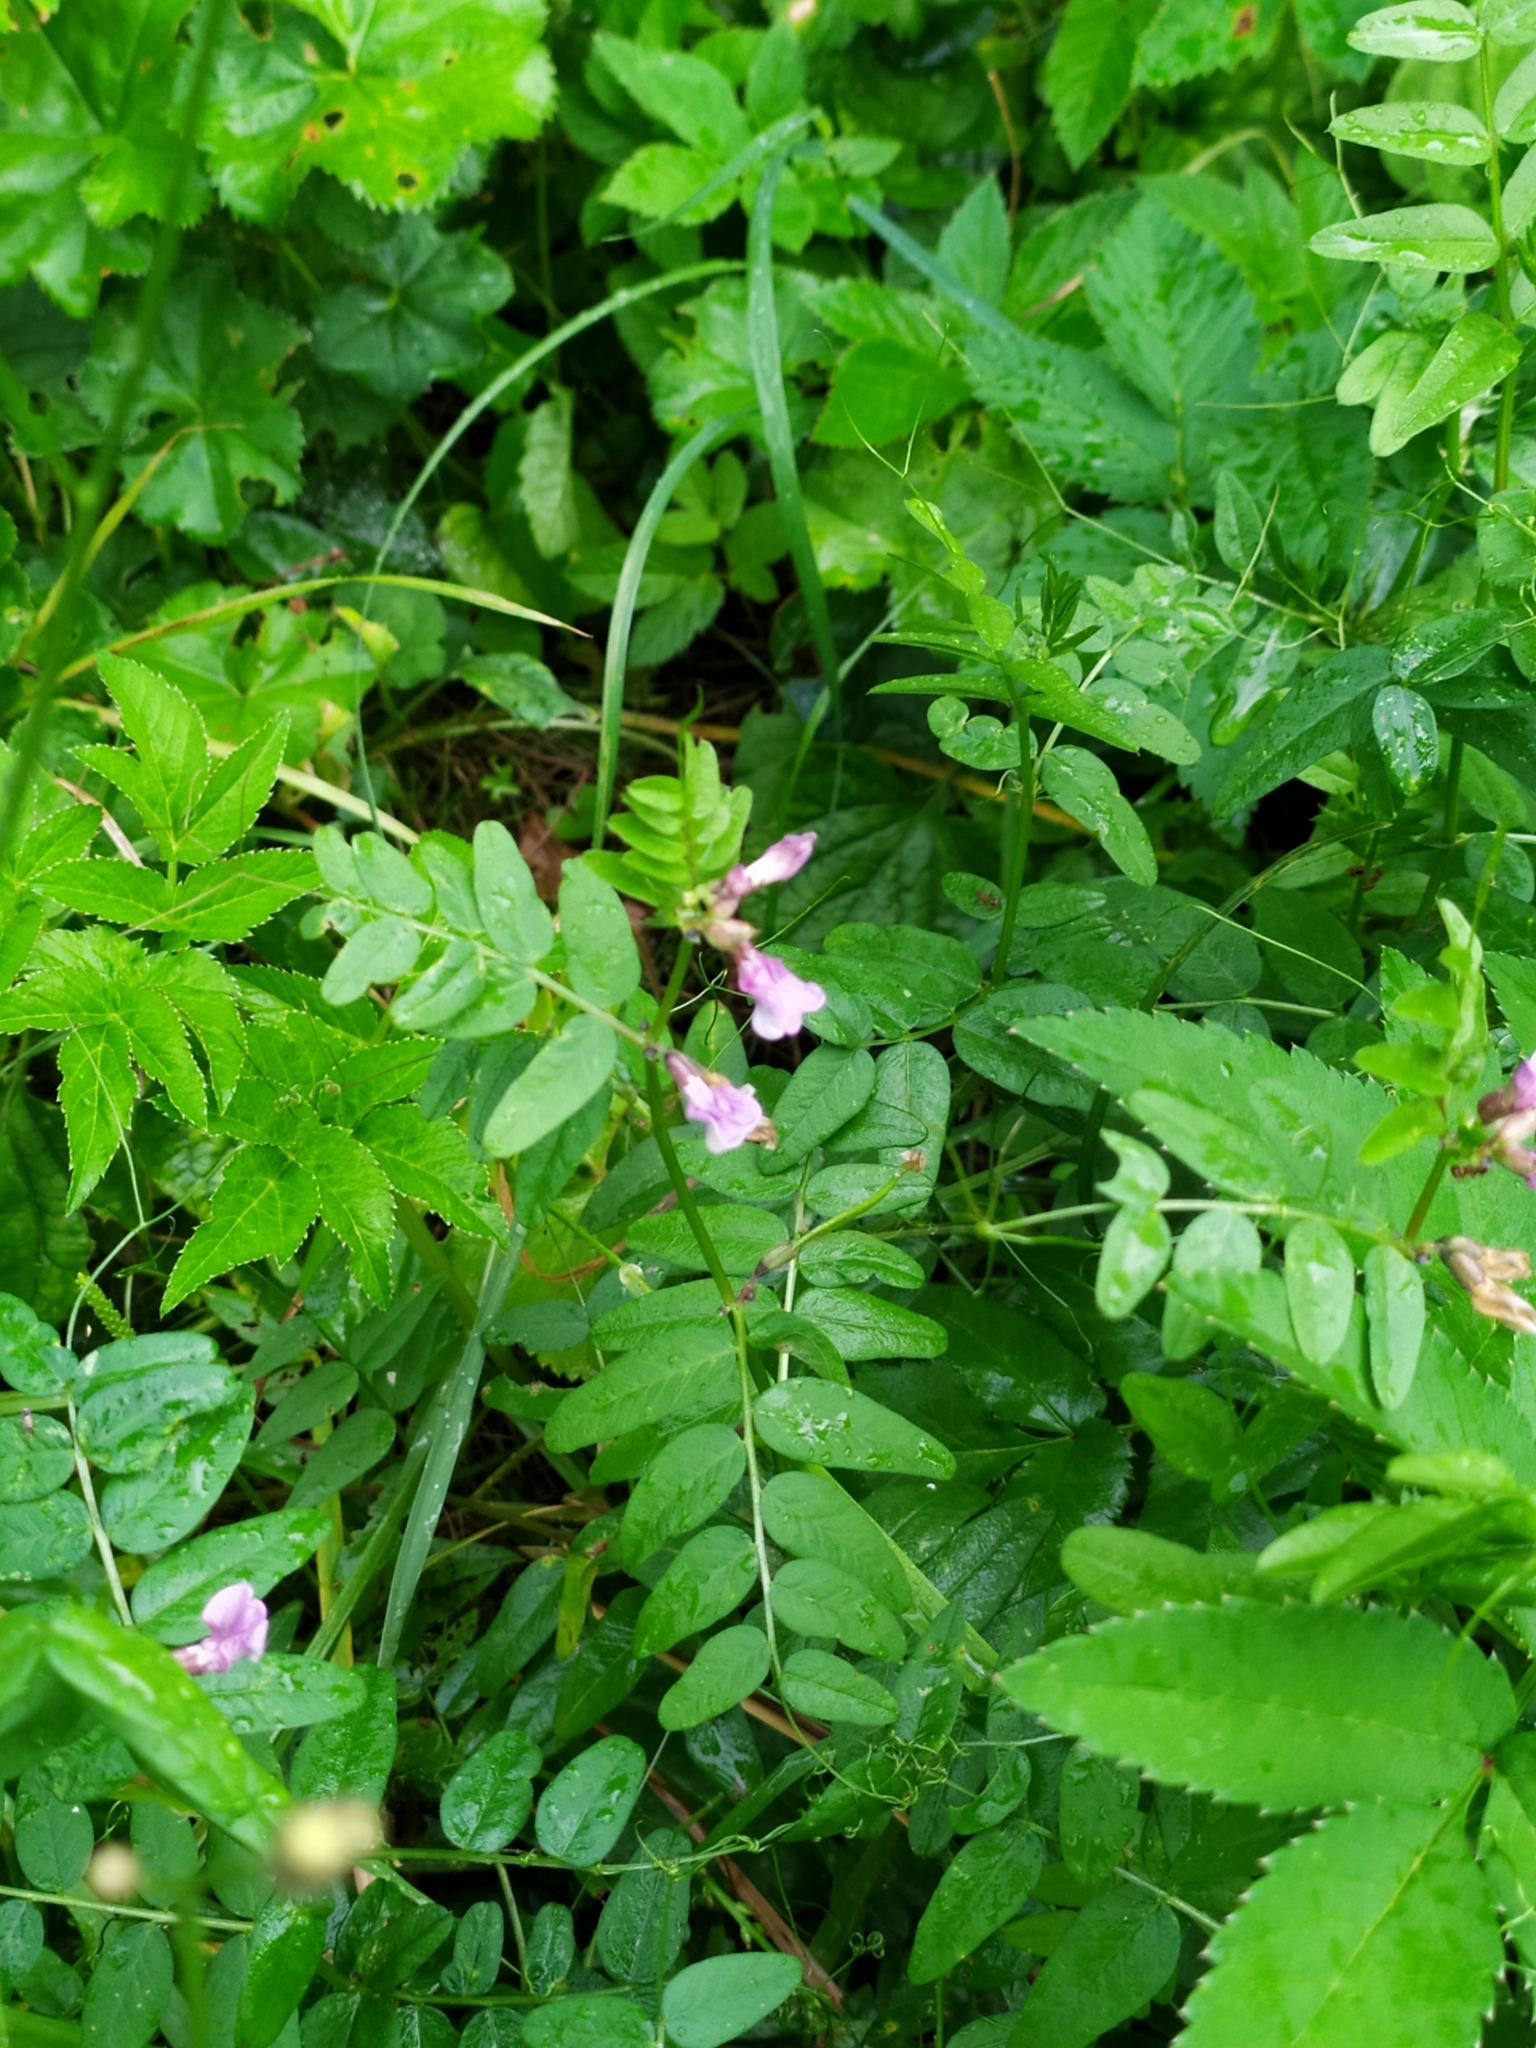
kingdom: Plantae
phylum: Tracheophyta
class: Magnoliopsida
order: Fabales
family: Fabaceae
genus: Vicia
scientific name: Vicia sepium
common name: Bush vetch
